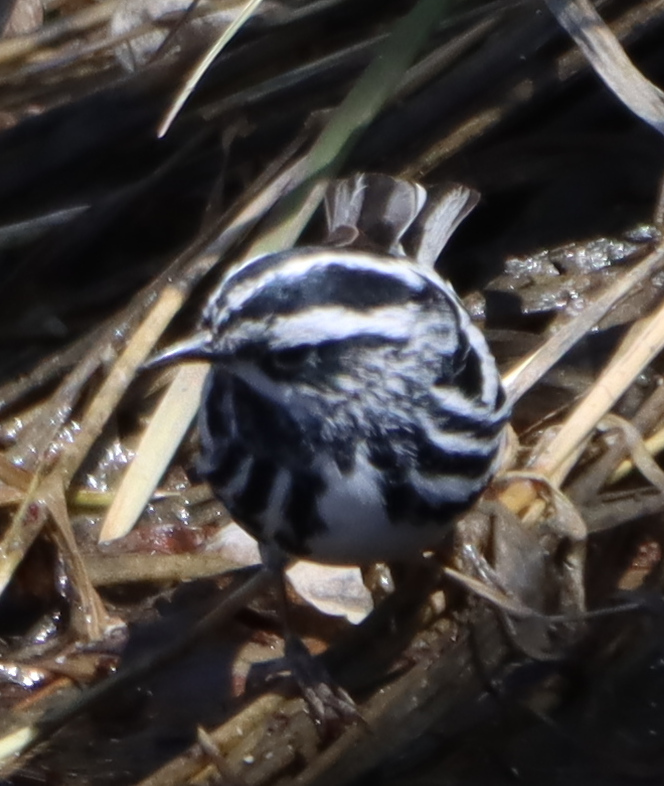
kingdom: Animalia
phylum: Chordata
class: Aves
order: Passeriformes
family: Parulidae
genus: Mniotilta
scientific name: Mniotilta varia
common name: Black-and-white warbler
